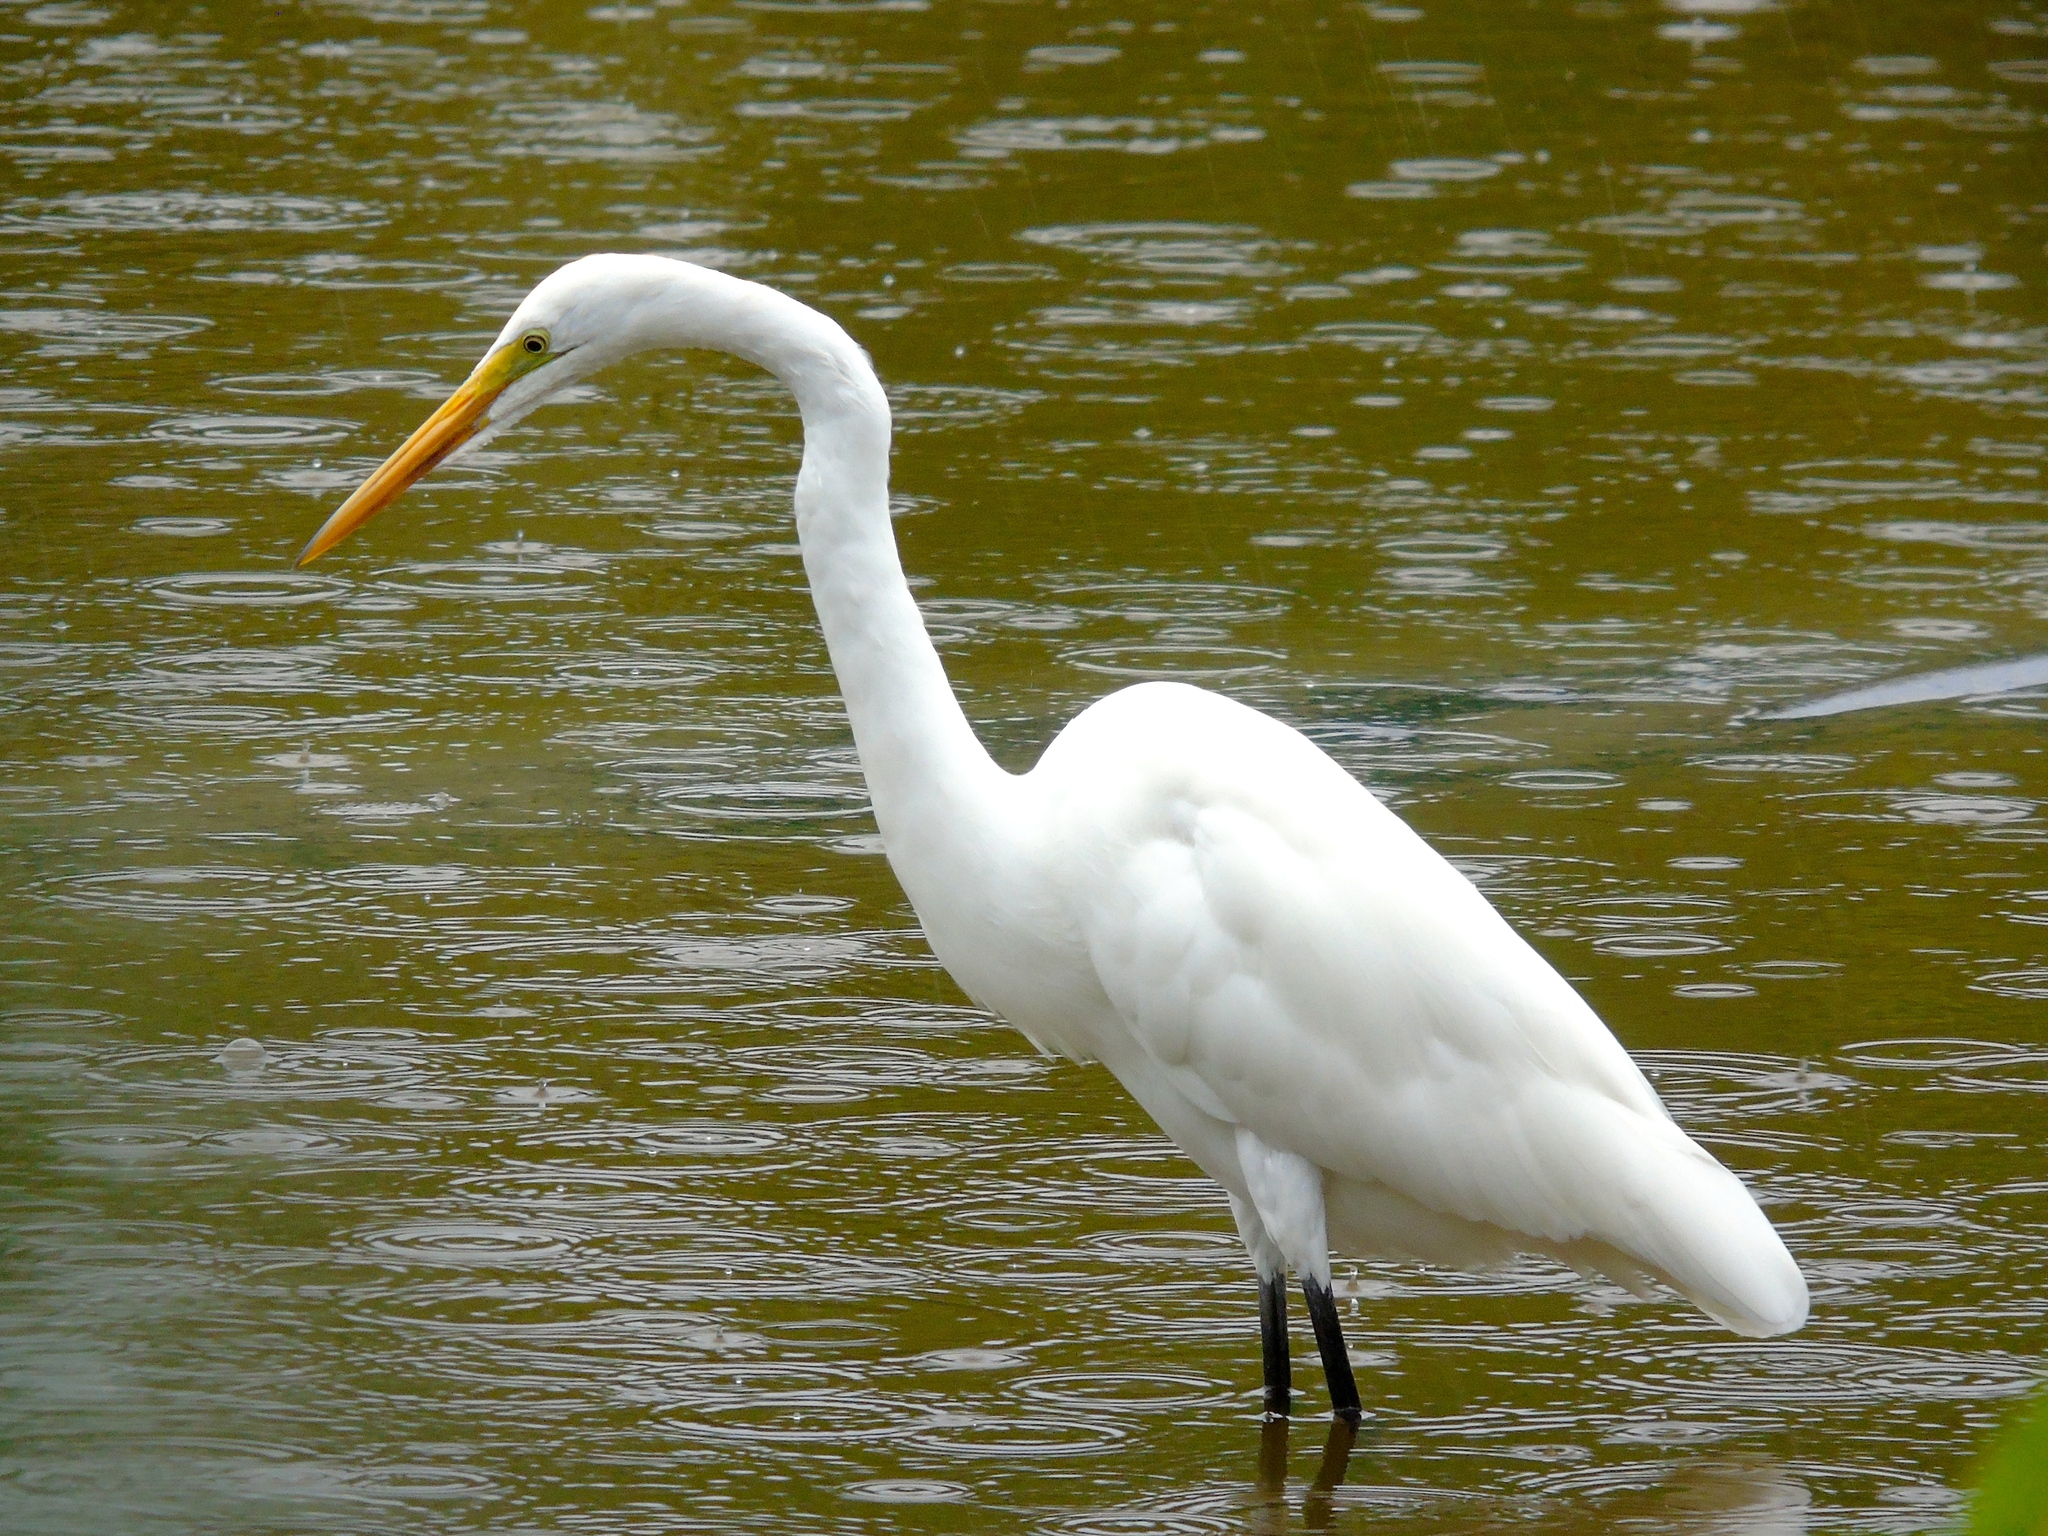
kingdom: Animalia
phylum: Chordata
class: Aves
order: Pelecaniformes
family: Ardeidae
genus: Ardea
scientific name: Ardea alba
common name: Great egret
